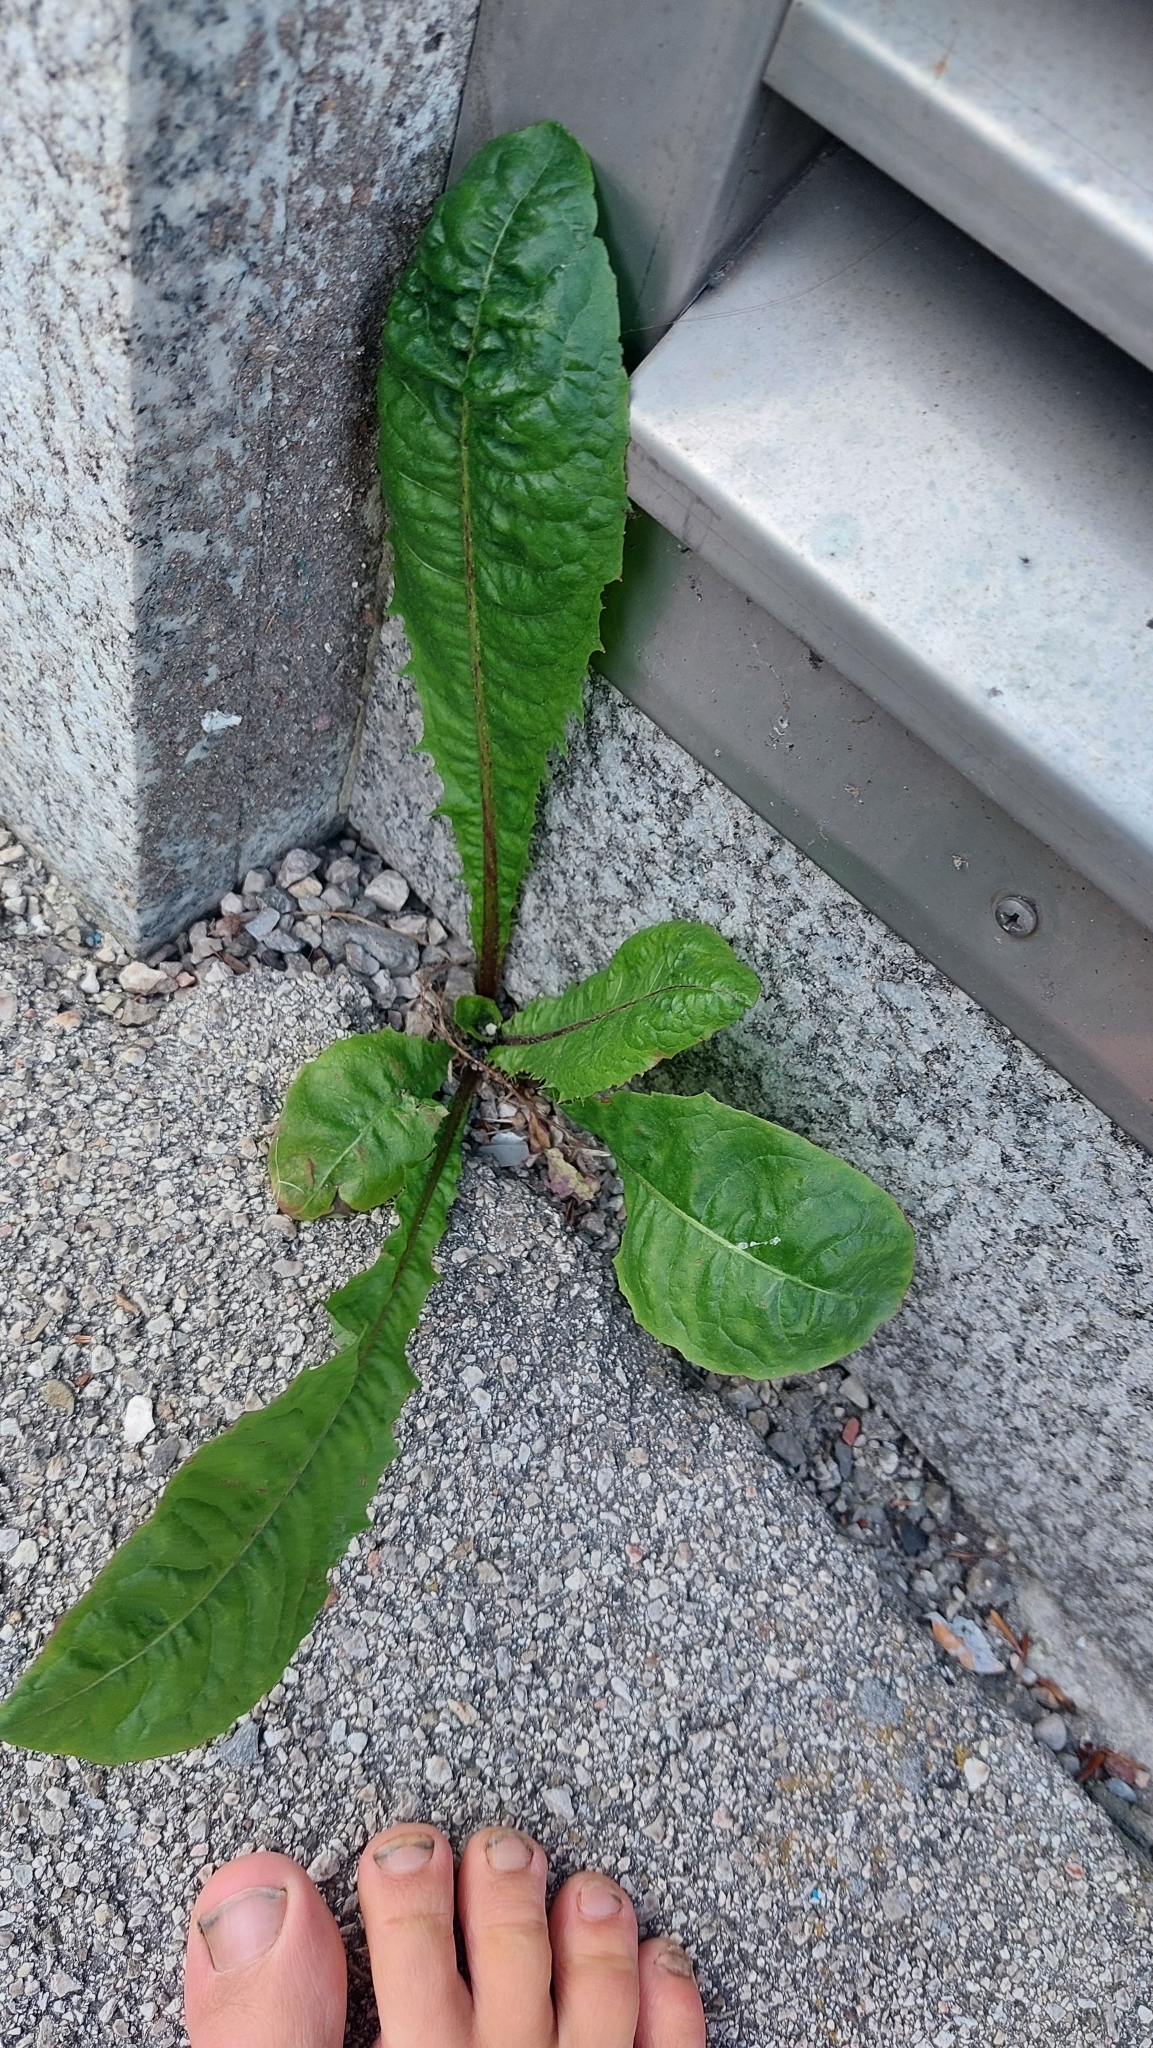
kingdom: Plantae
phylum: Tracheophyta
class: Magnoliopsida
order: Asterales
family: Asteraceae
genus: Taraxacum
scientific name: Taraxacum
